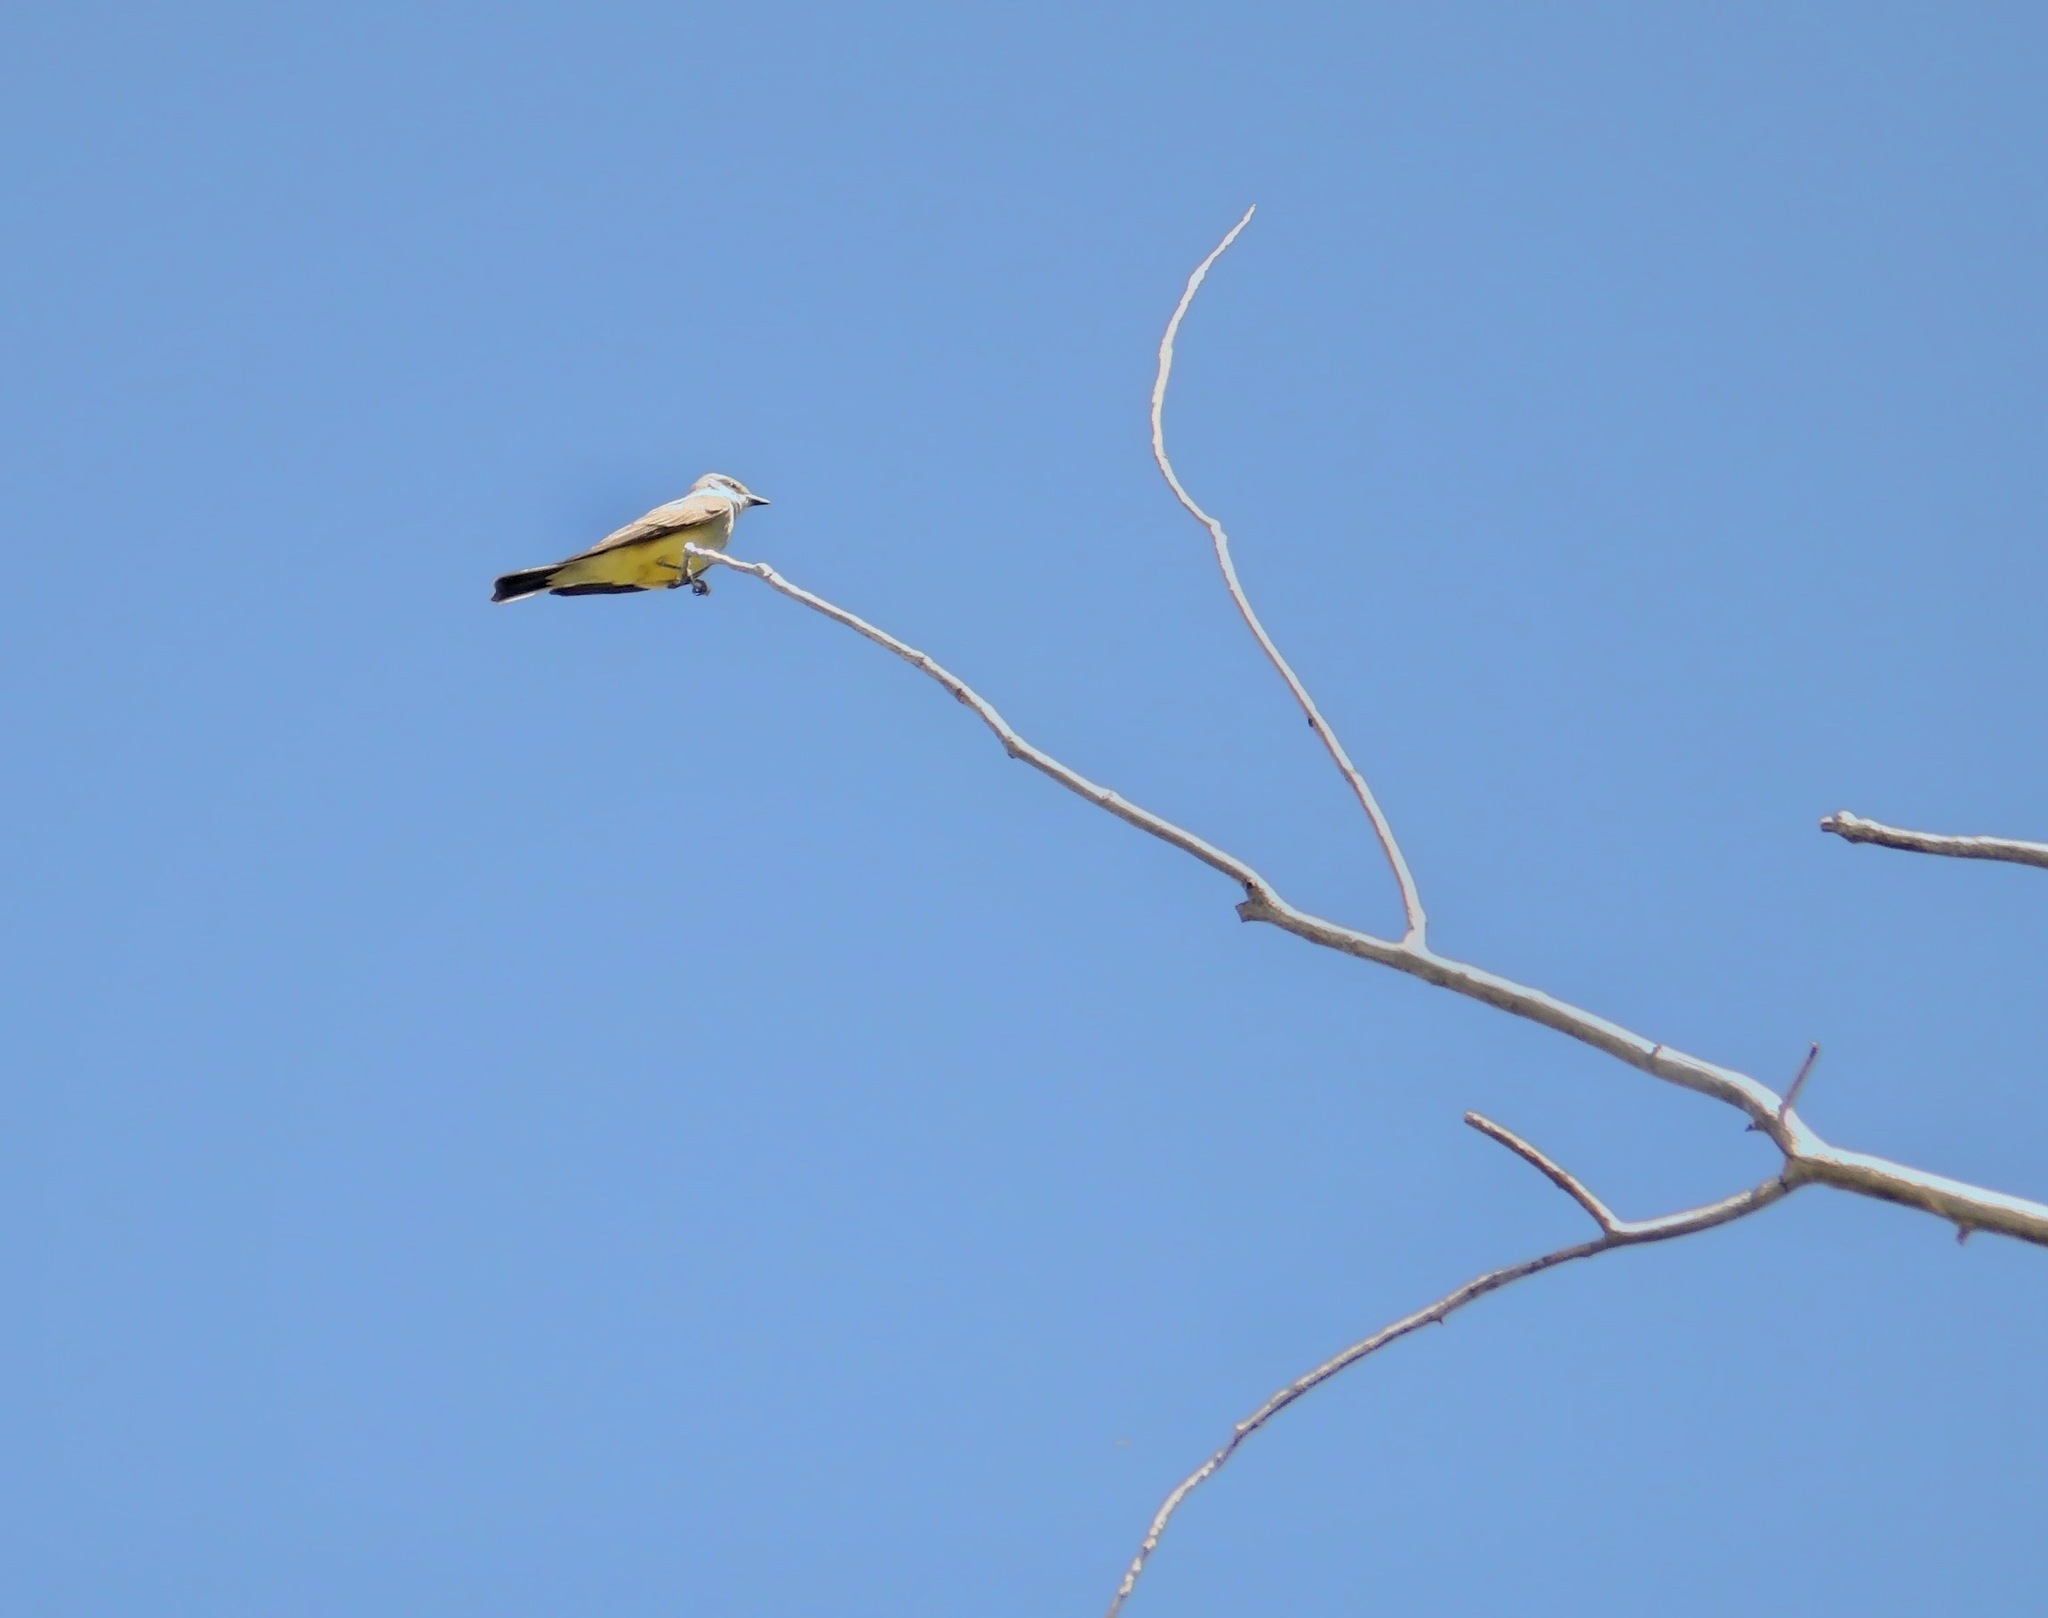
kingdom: Animalia
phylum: Chordata
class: Aves
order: Passeriformes
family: Tyrannidae
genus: Tyrannus
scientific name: Tyrannus verticalis
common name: Western kingbird
